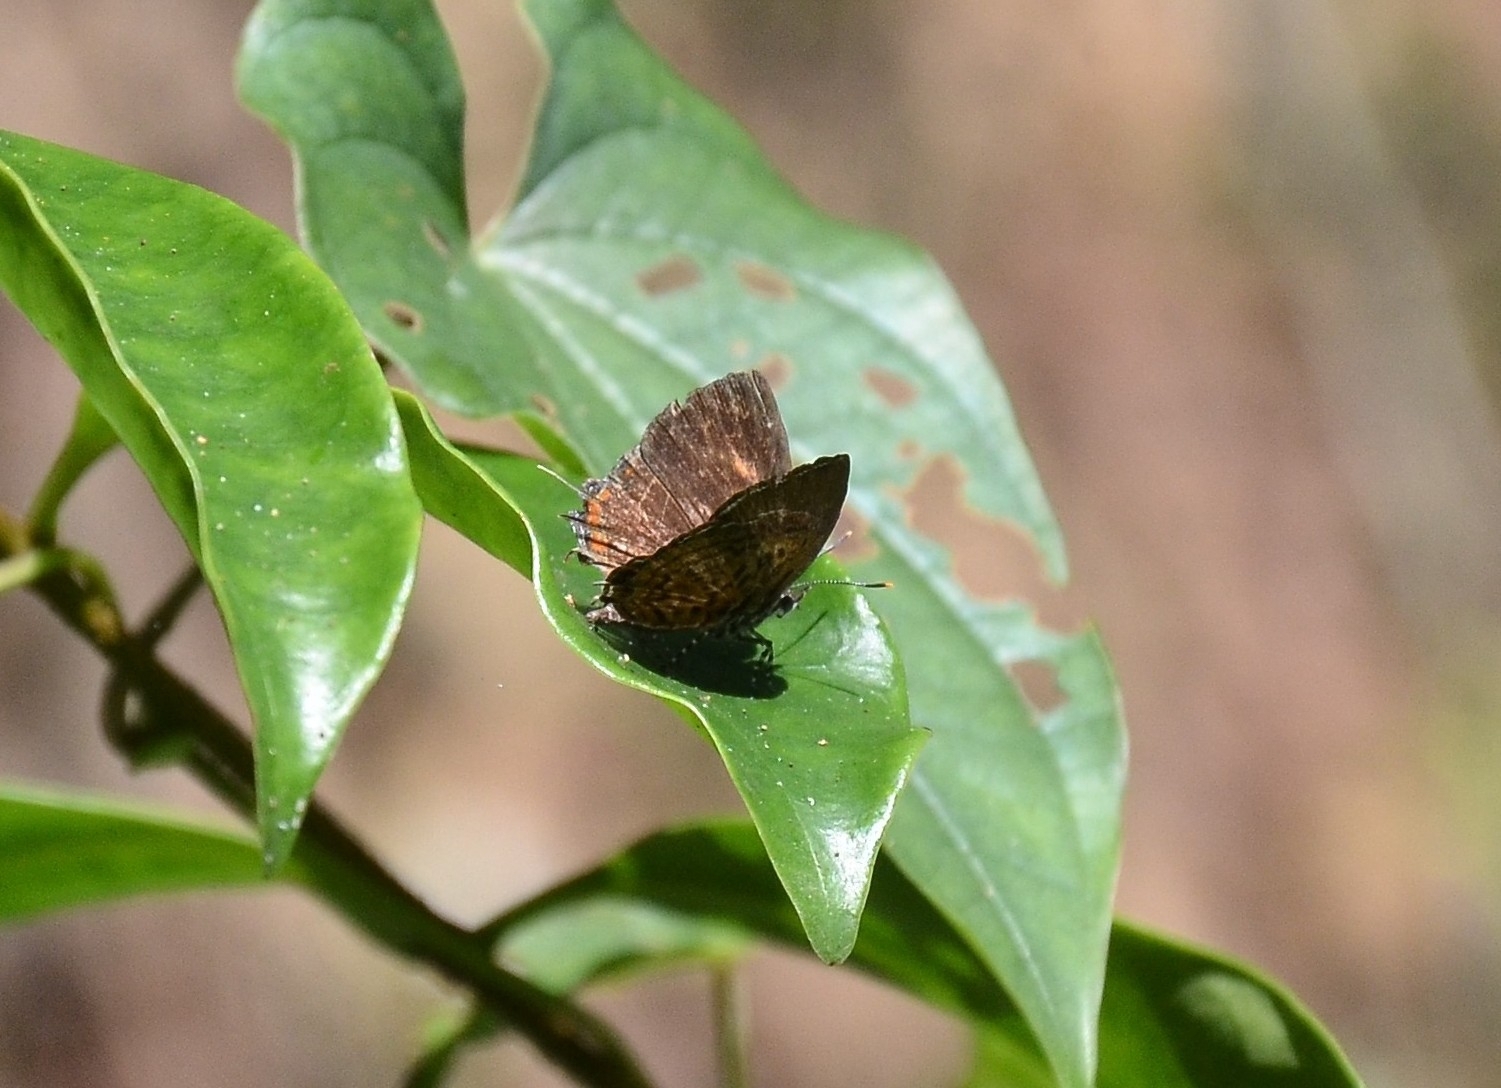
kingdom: Animalia
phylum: Arthropoda
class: Insecta
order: Lepidoptera
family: Lycaenidae
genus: Rathinda
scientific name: Rathinda amor
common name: Monkey puzzle
